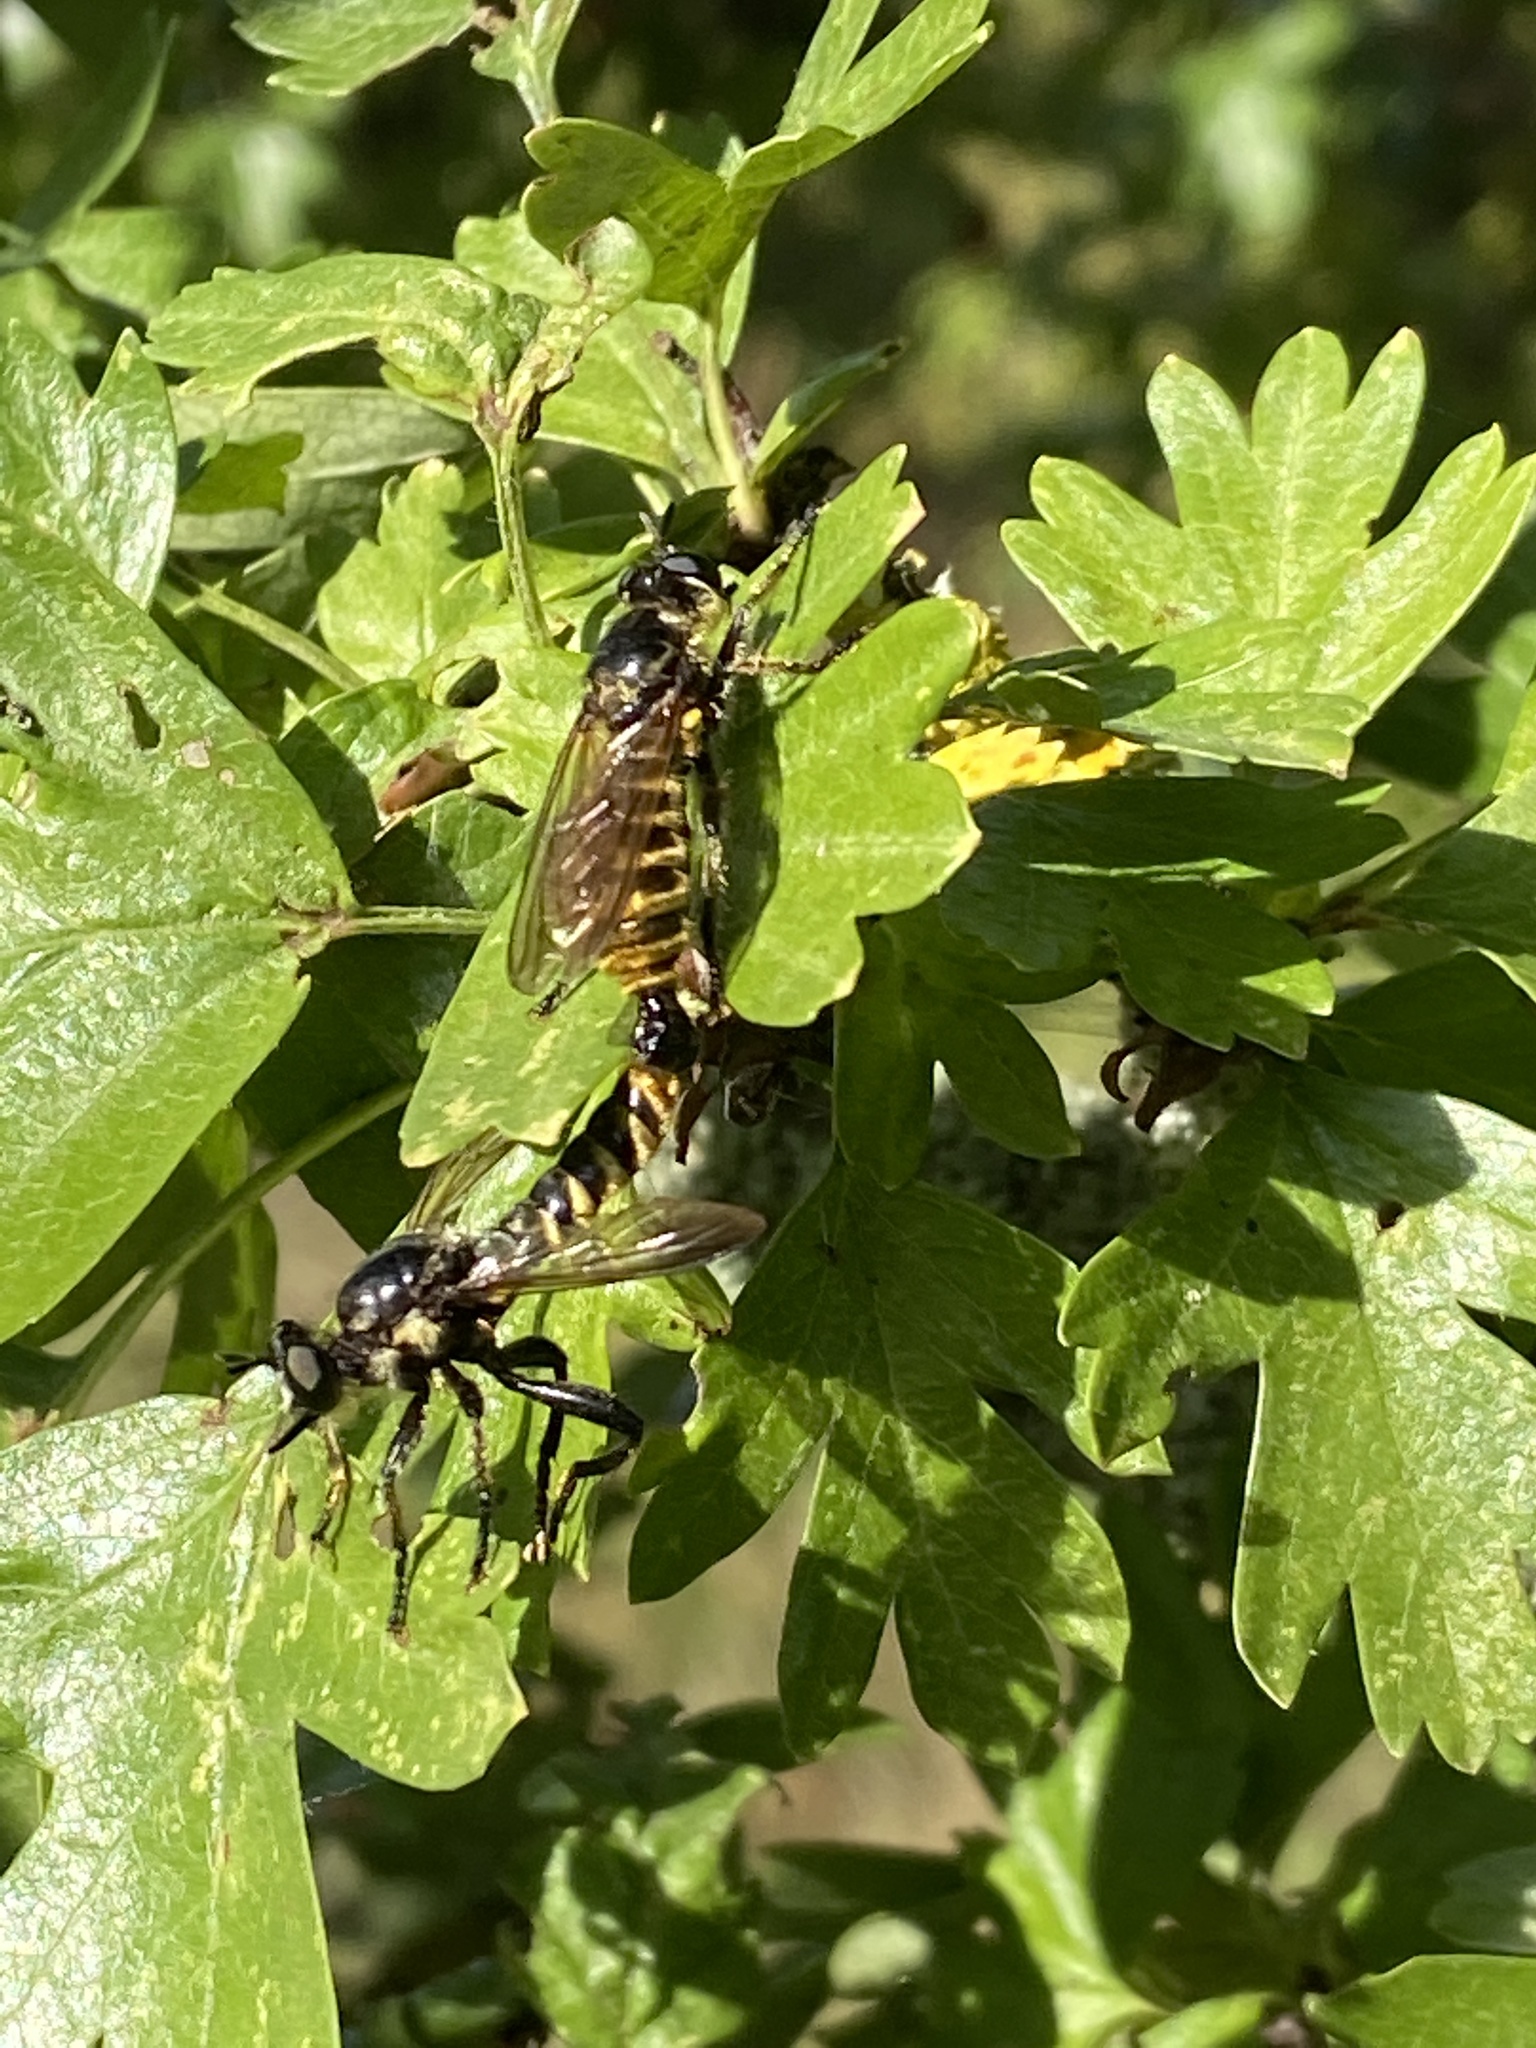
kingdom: Animalia
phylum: Arthropoda
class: Insecta
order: Diptera
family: Asilidae
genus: Lamyra
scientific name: Lamyra fimbriata
